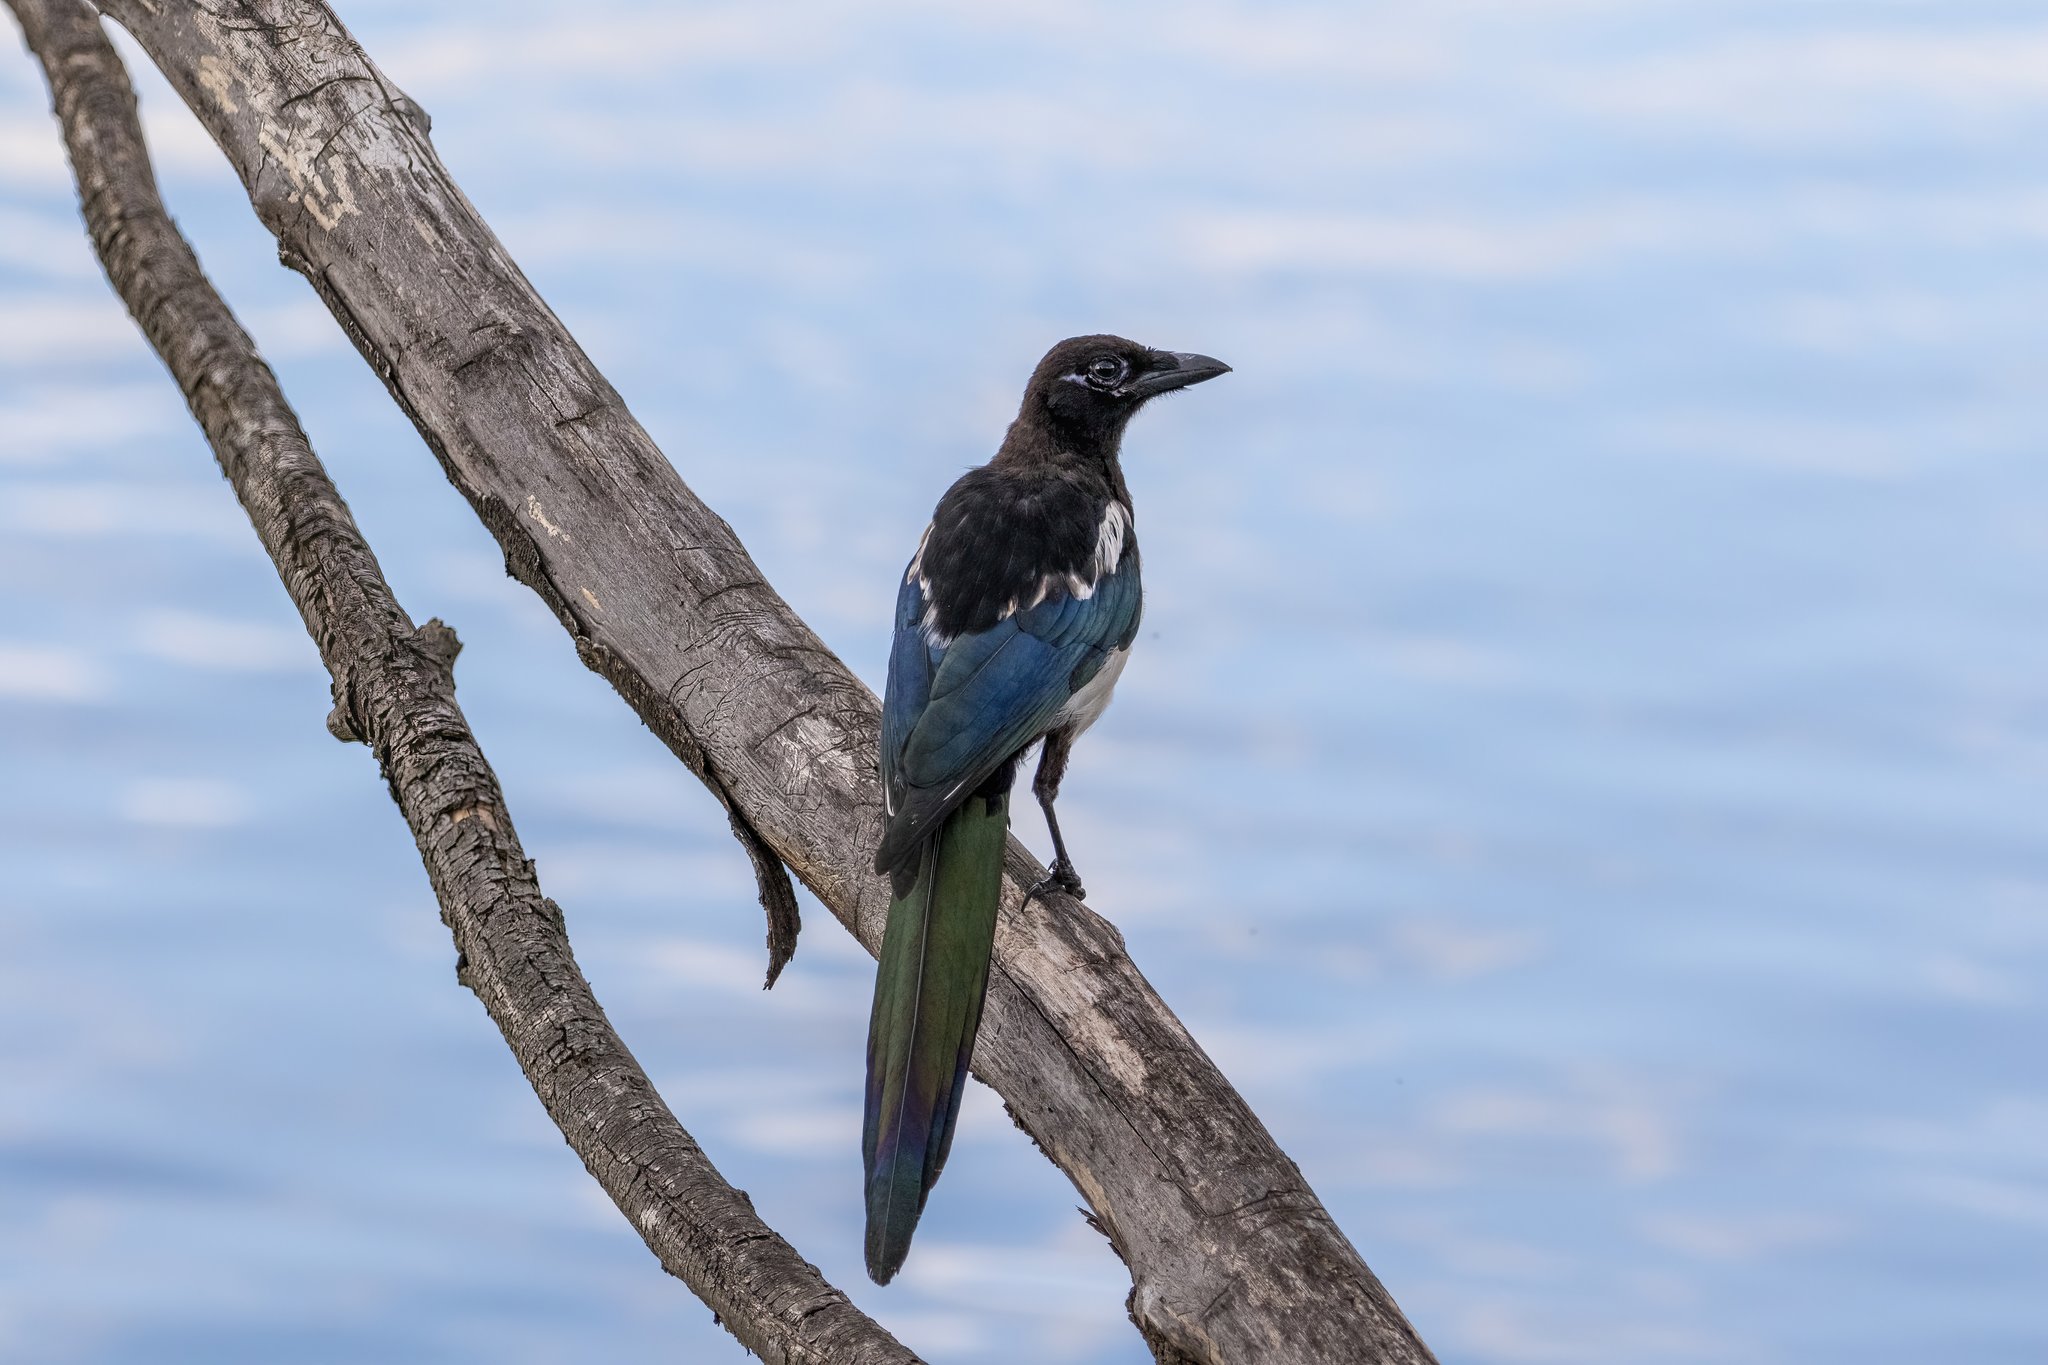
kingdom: Animalia
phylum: Chordata
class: Aves
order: Passeriformes
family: Corvidae
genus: Pica
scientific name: Pica pica
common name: Eurasian magpie
